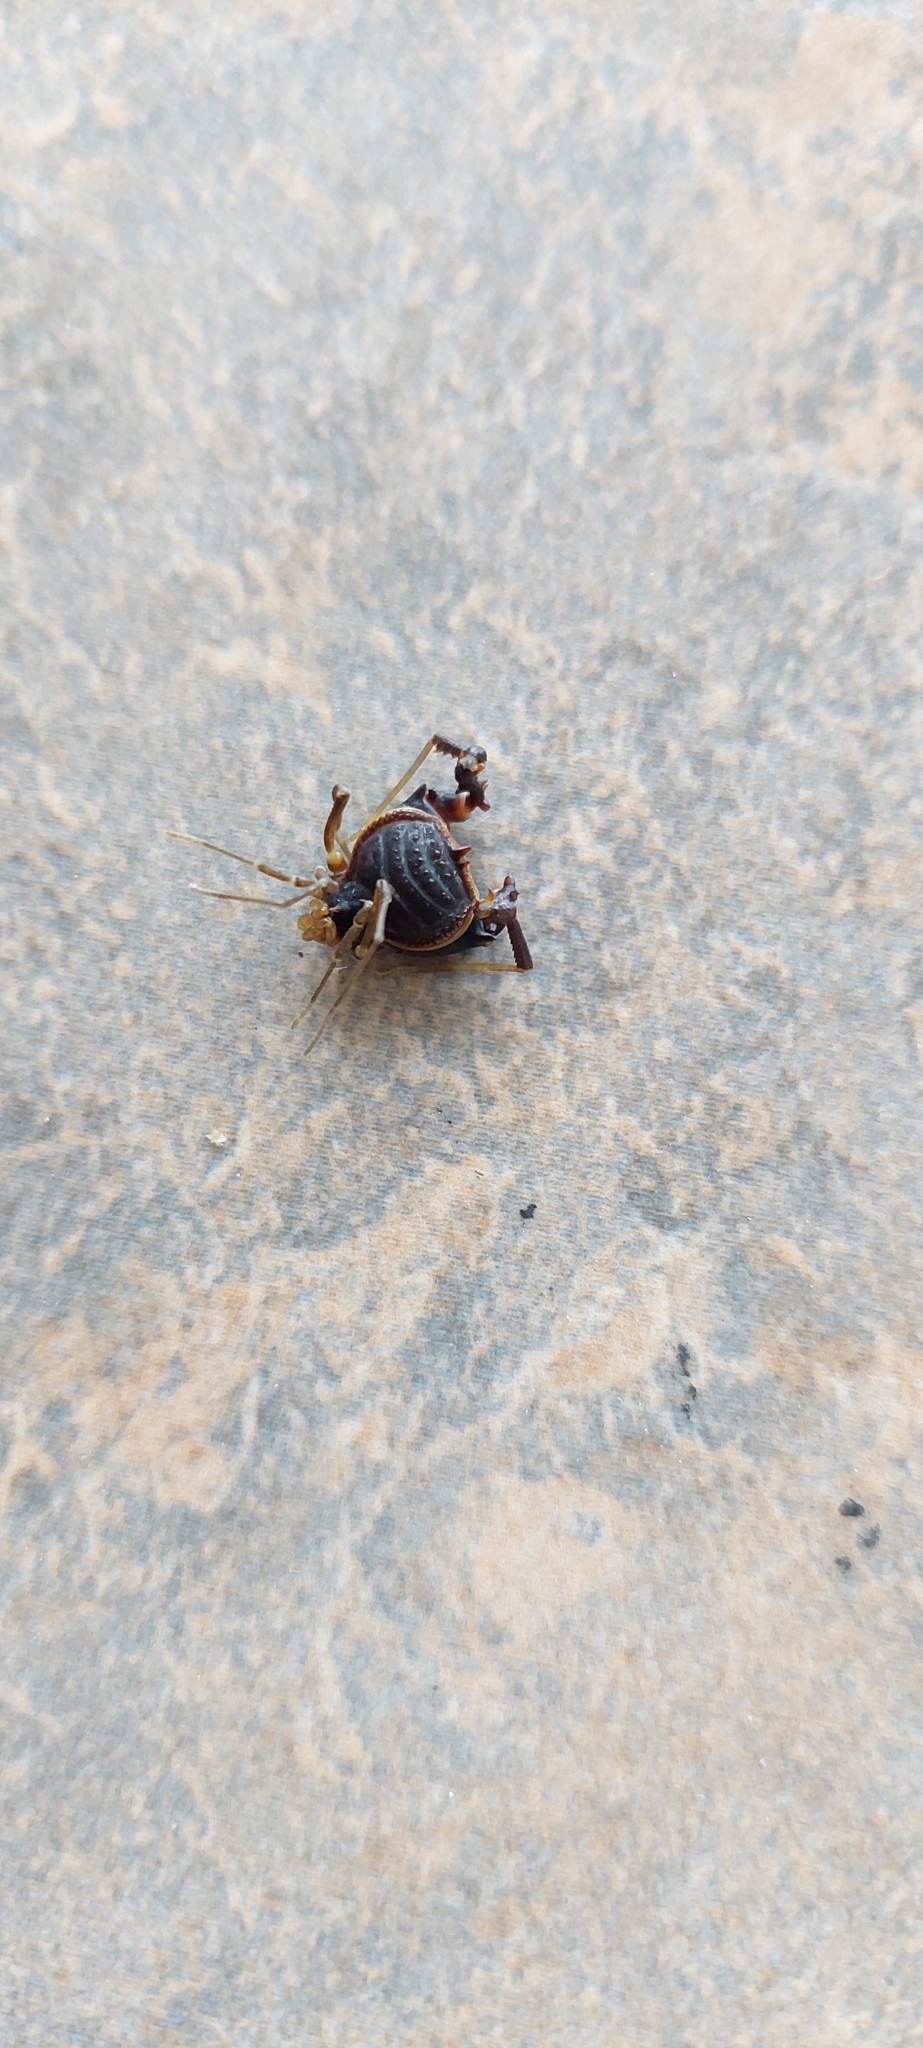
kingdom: Animalia
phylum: Arthropoda
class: Arachnida
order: Opiliones
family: Gonyleptidae
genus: Acanthopachylus
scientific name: Acanthopachylus robustus
